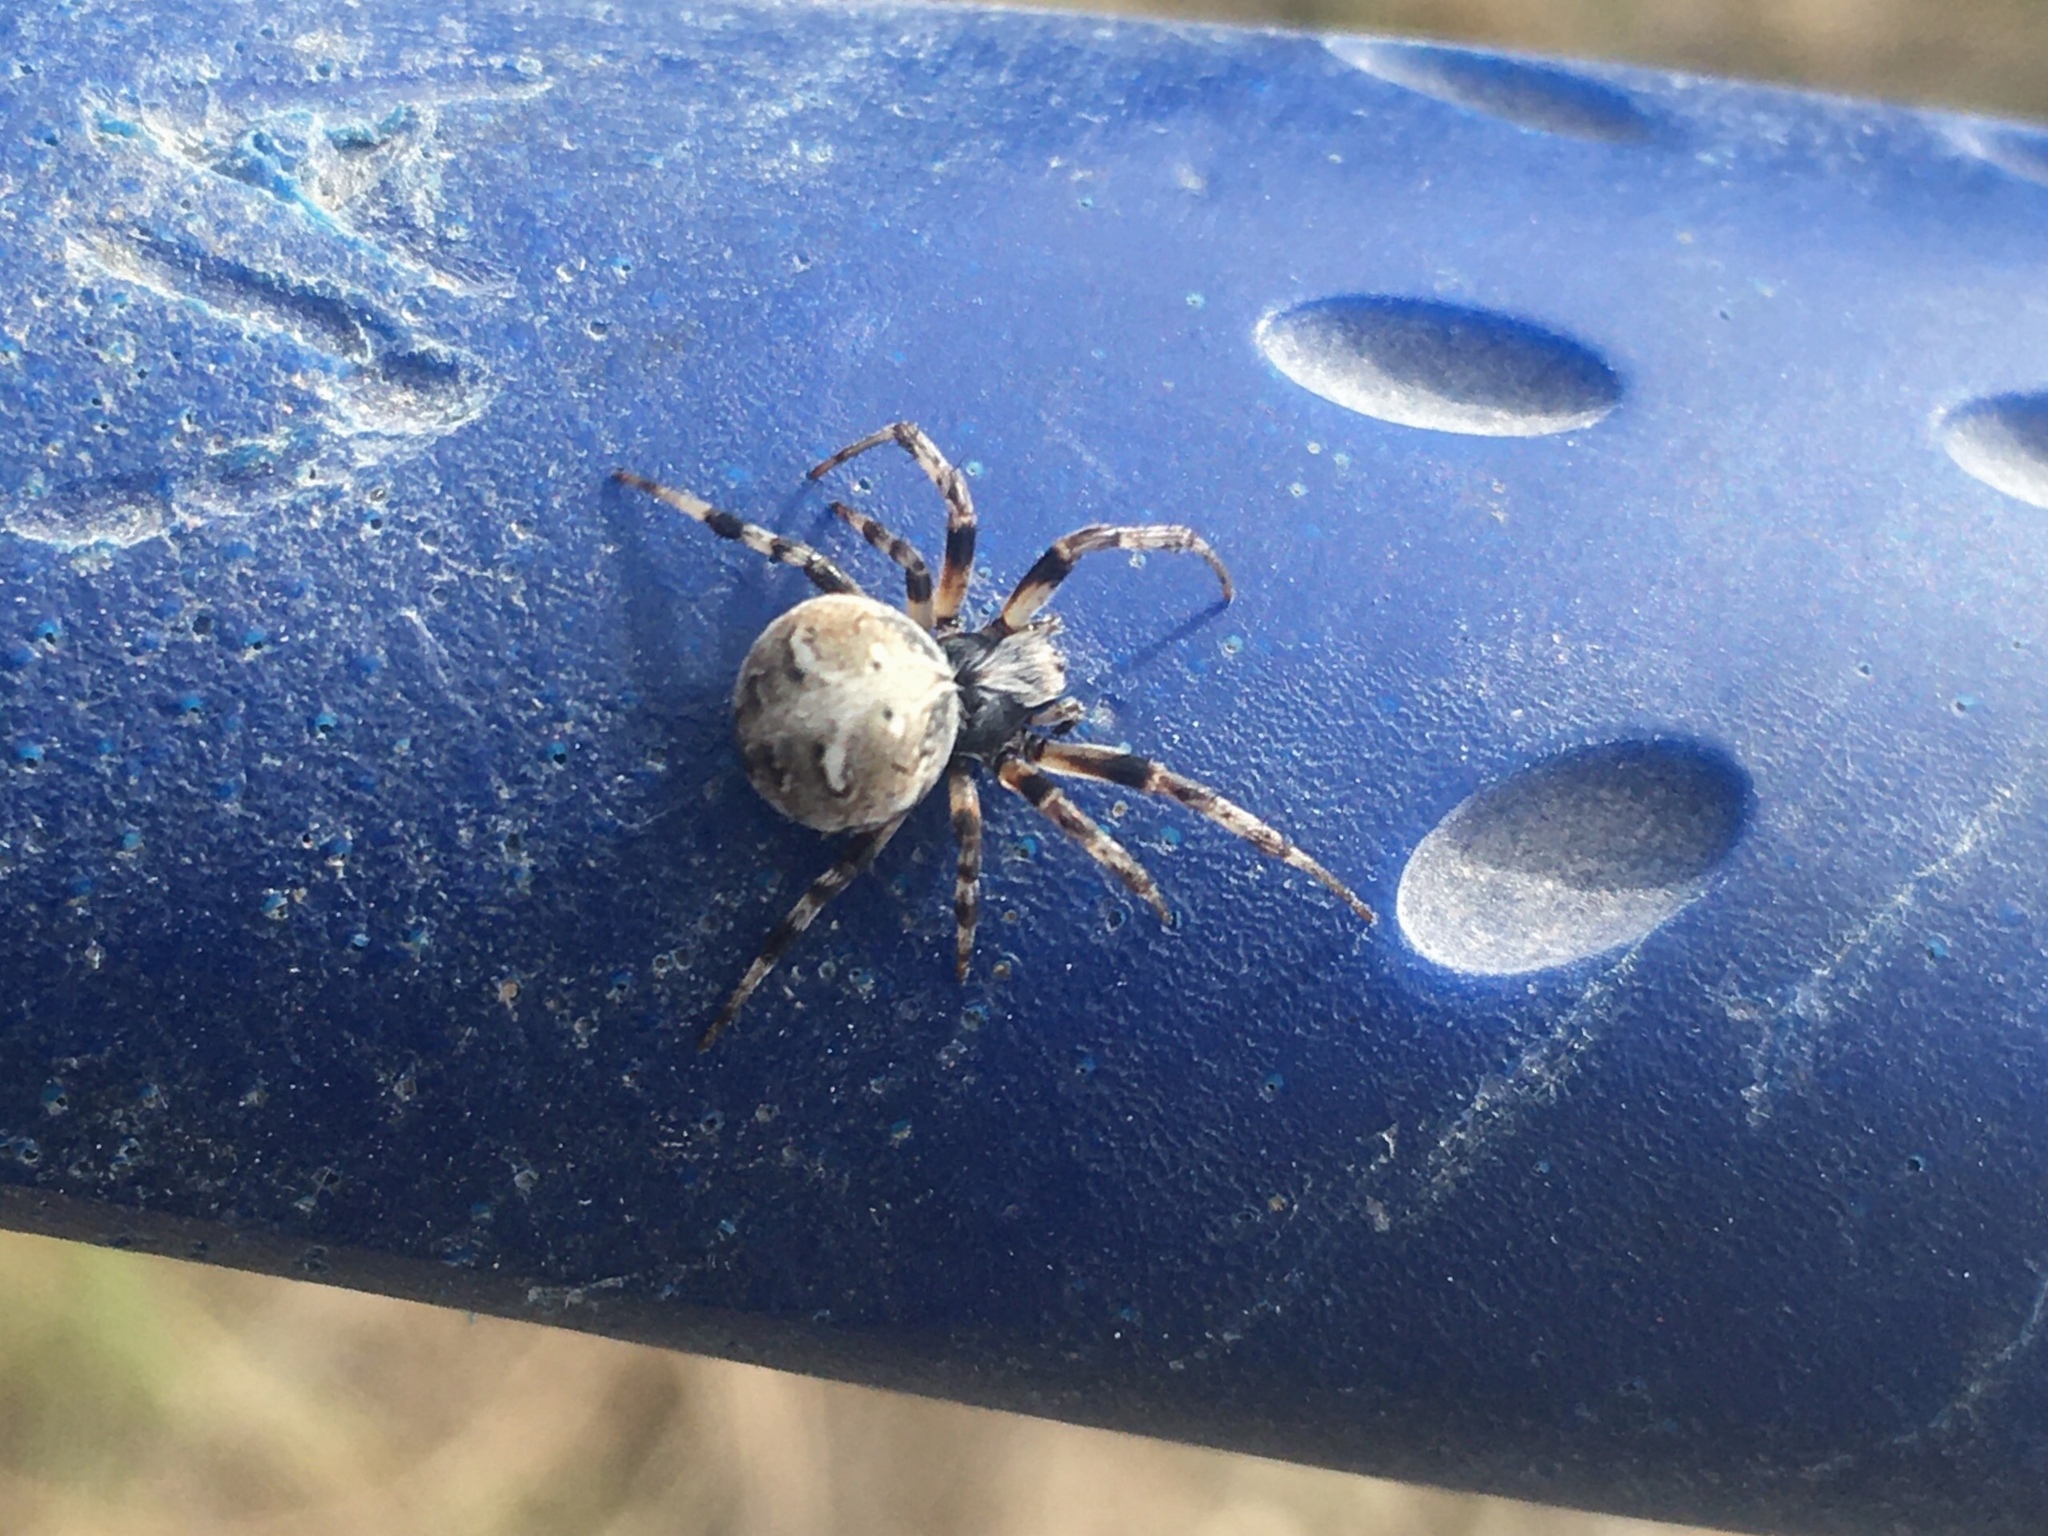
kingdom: Animalia
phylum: Arthropoda
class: Arachnida
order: Araneae
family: Araneidae
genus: Metepeira
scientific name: Metepeira
